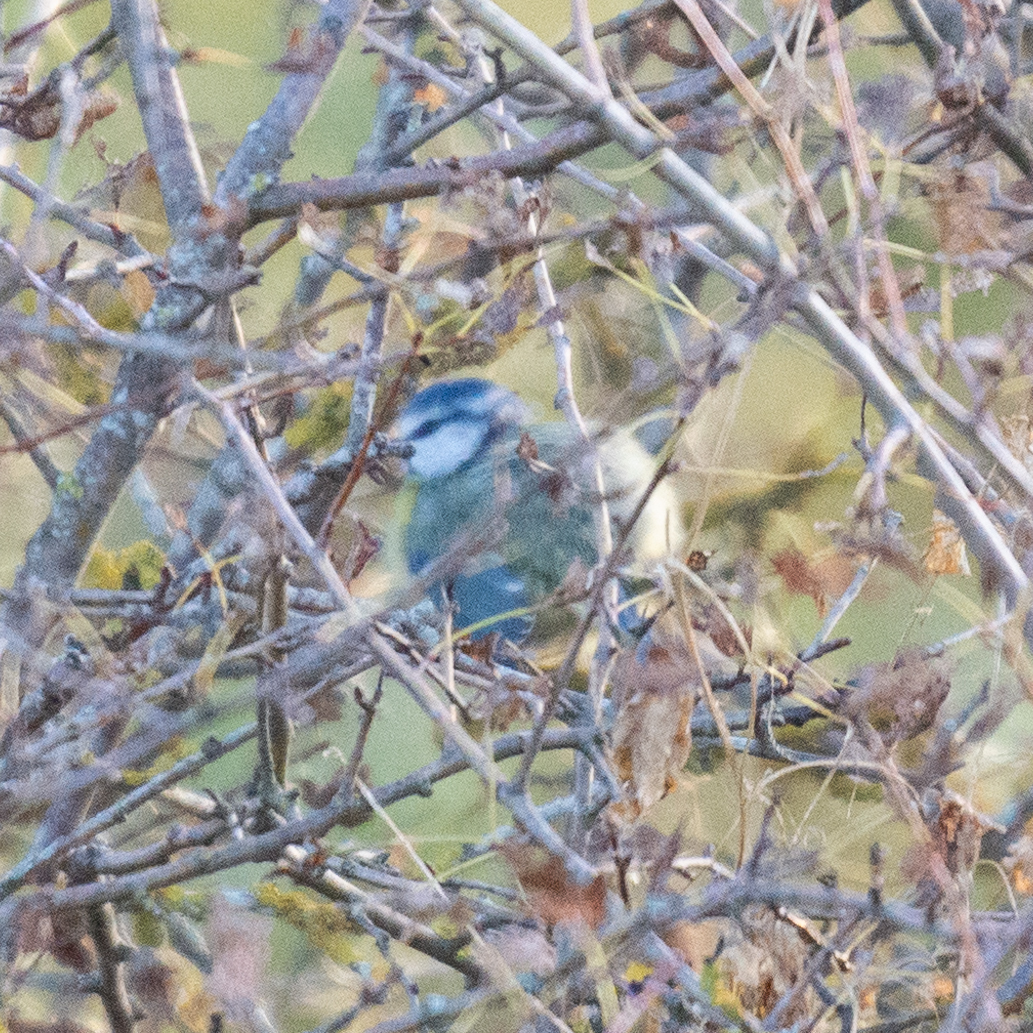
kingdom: Animalia
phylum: Chordata
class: Aves
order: Passeriformes
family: Paridae
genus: Cyanistes
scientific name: Cyanistes caeruleus
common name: Eurasian blue tit
